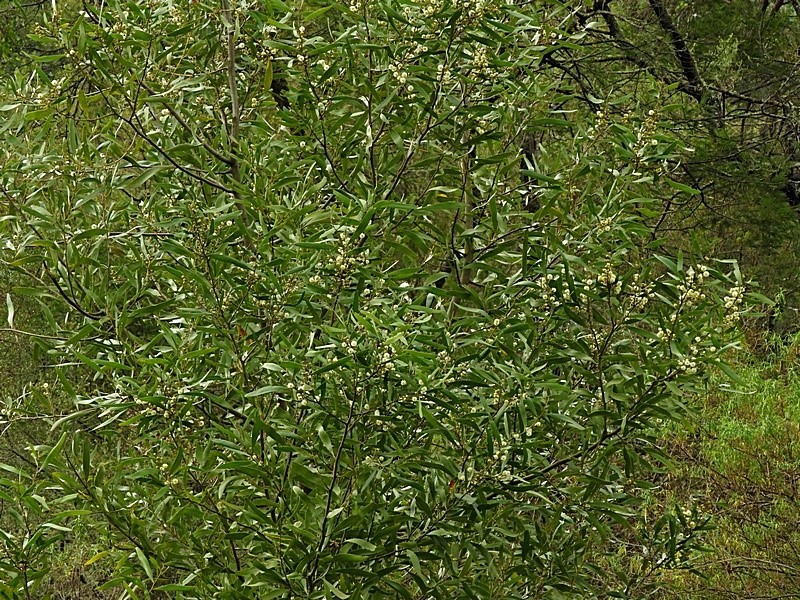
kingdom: Plantae
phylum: Tracheophyta
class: Magnoliopsida
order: Fabales
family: Fabaceae
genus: Acacia
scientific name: Acacia melanoxylon
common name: Blackwood
